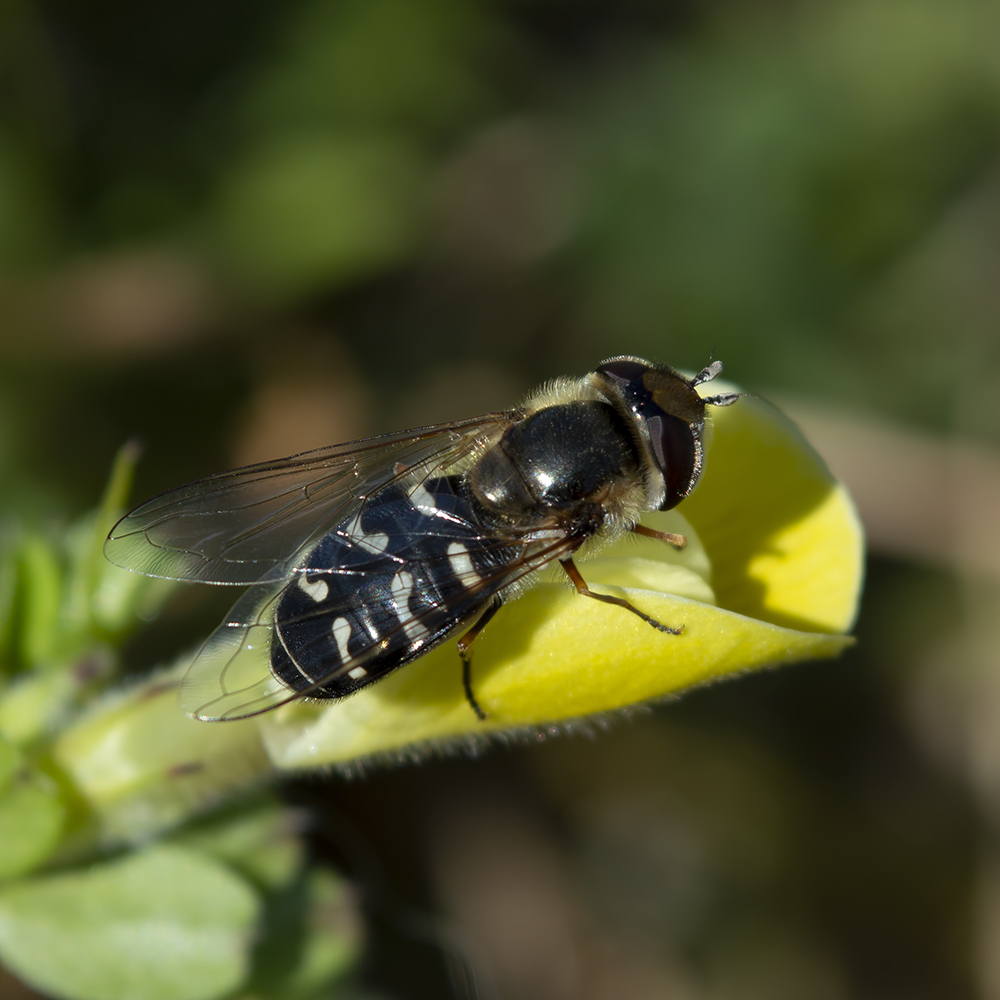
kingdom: Animalia
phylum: Arthropoda
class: Insecta
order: Diptera
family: Syrphidae
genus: Scaeva
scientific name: Scaeva pyrastri
